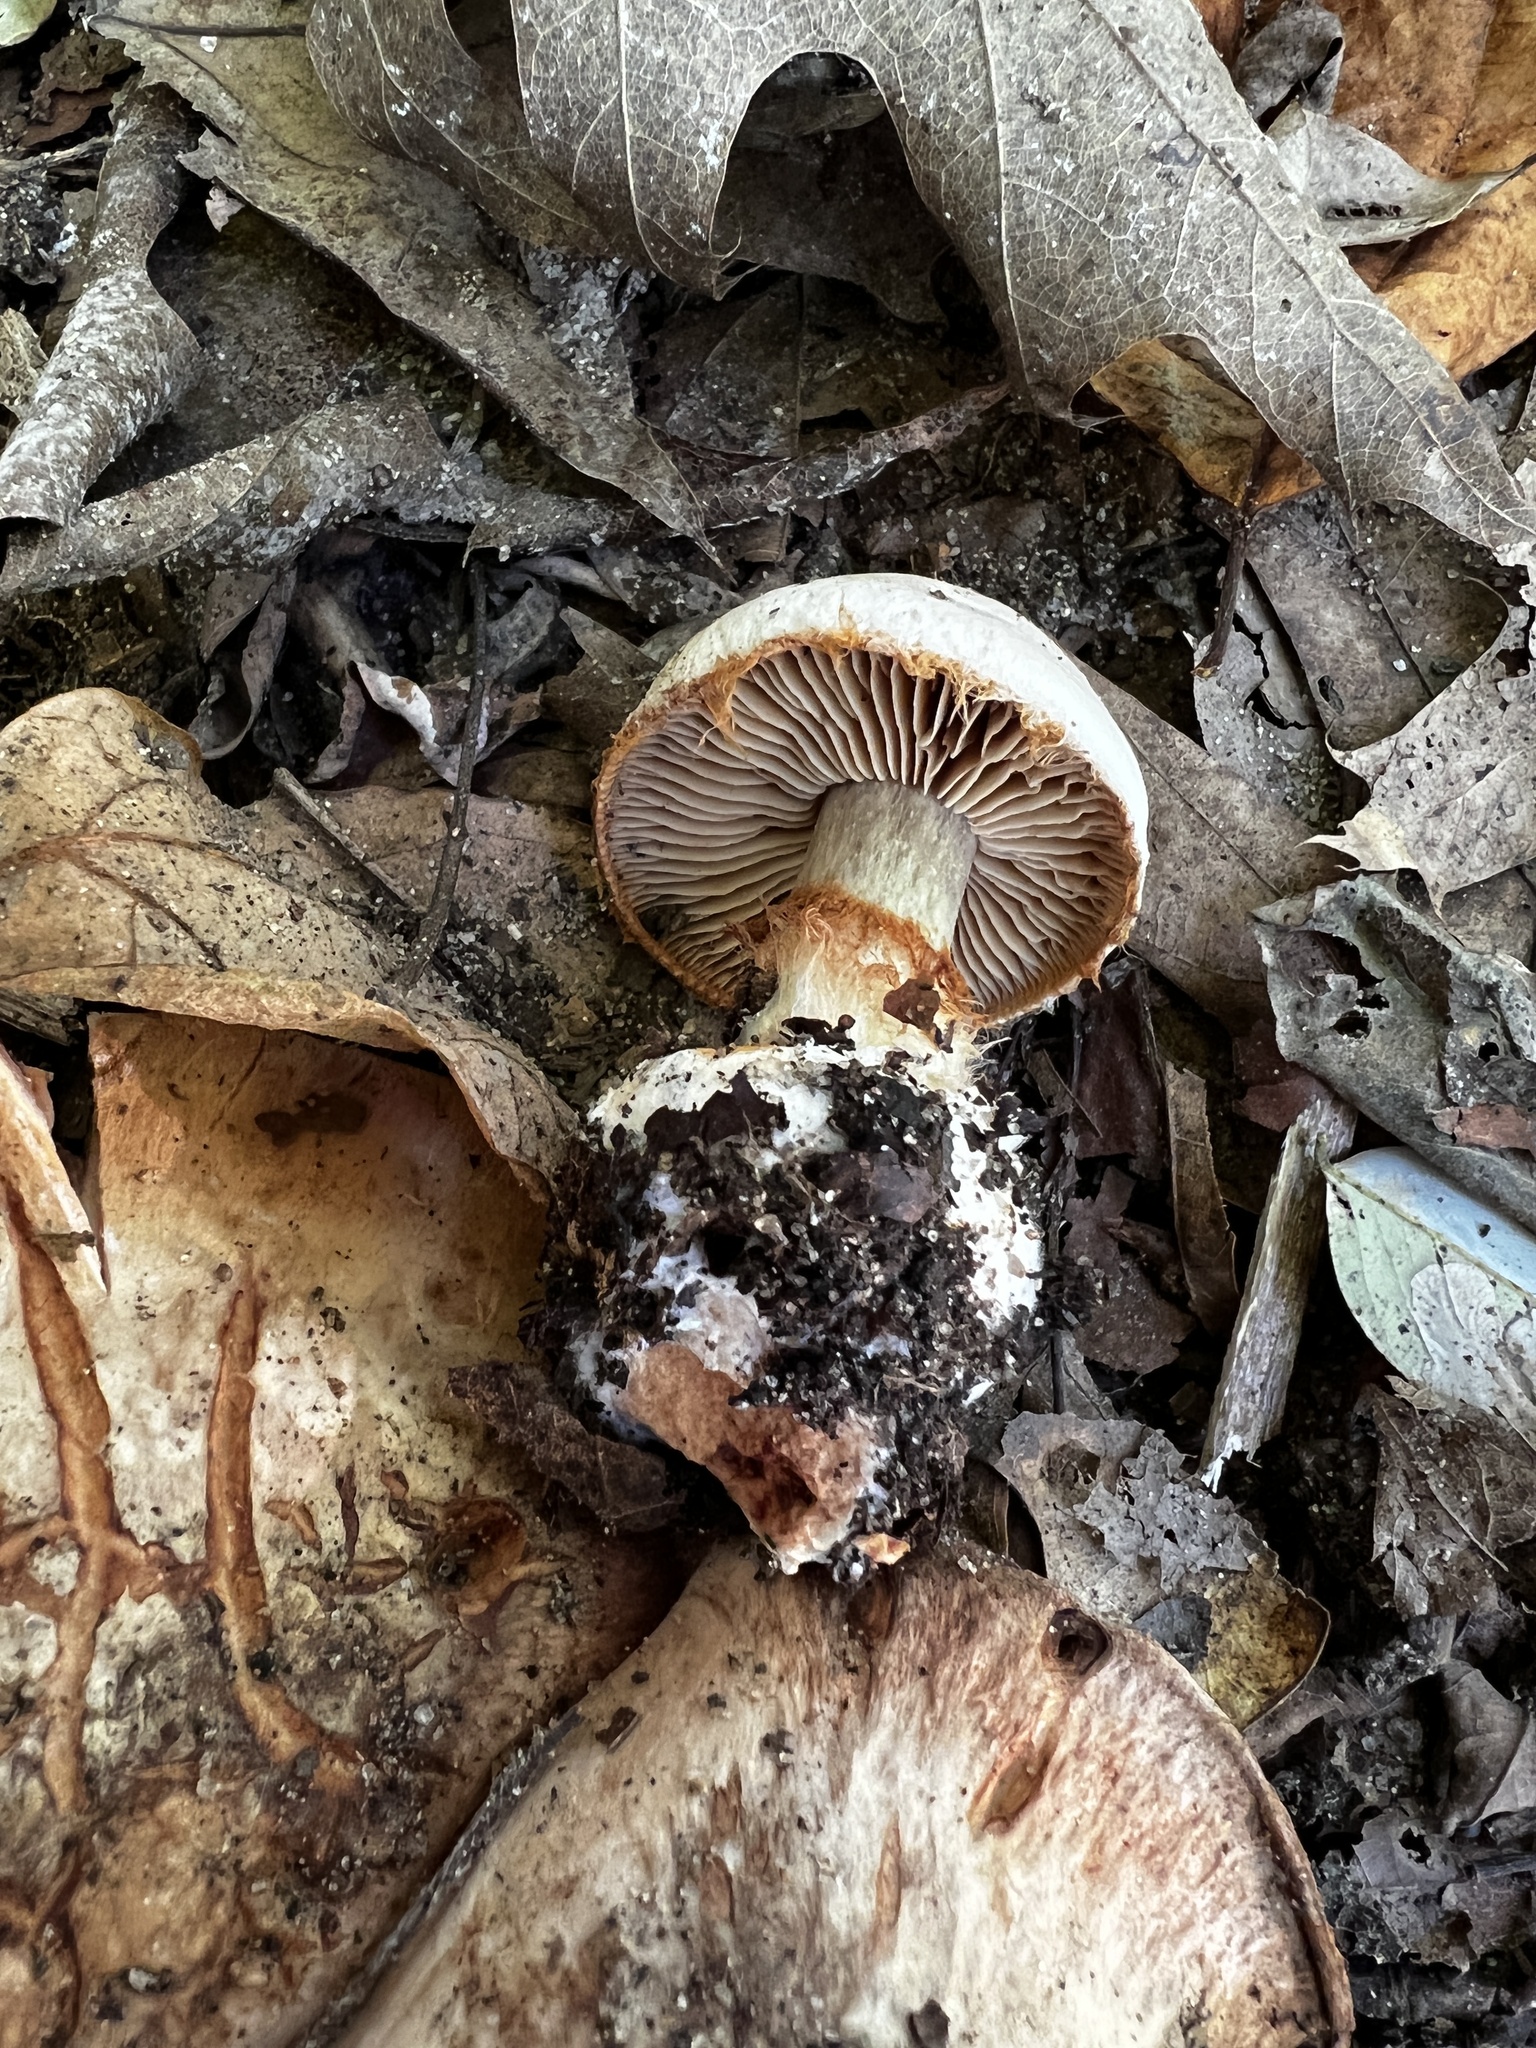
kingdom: Fungi
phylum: Basidiomycota
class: Agaricomycetes
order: Agaricales
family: Cortinariaceae
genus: Cortinarius
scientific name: Cortinarius scaurotraganoides
